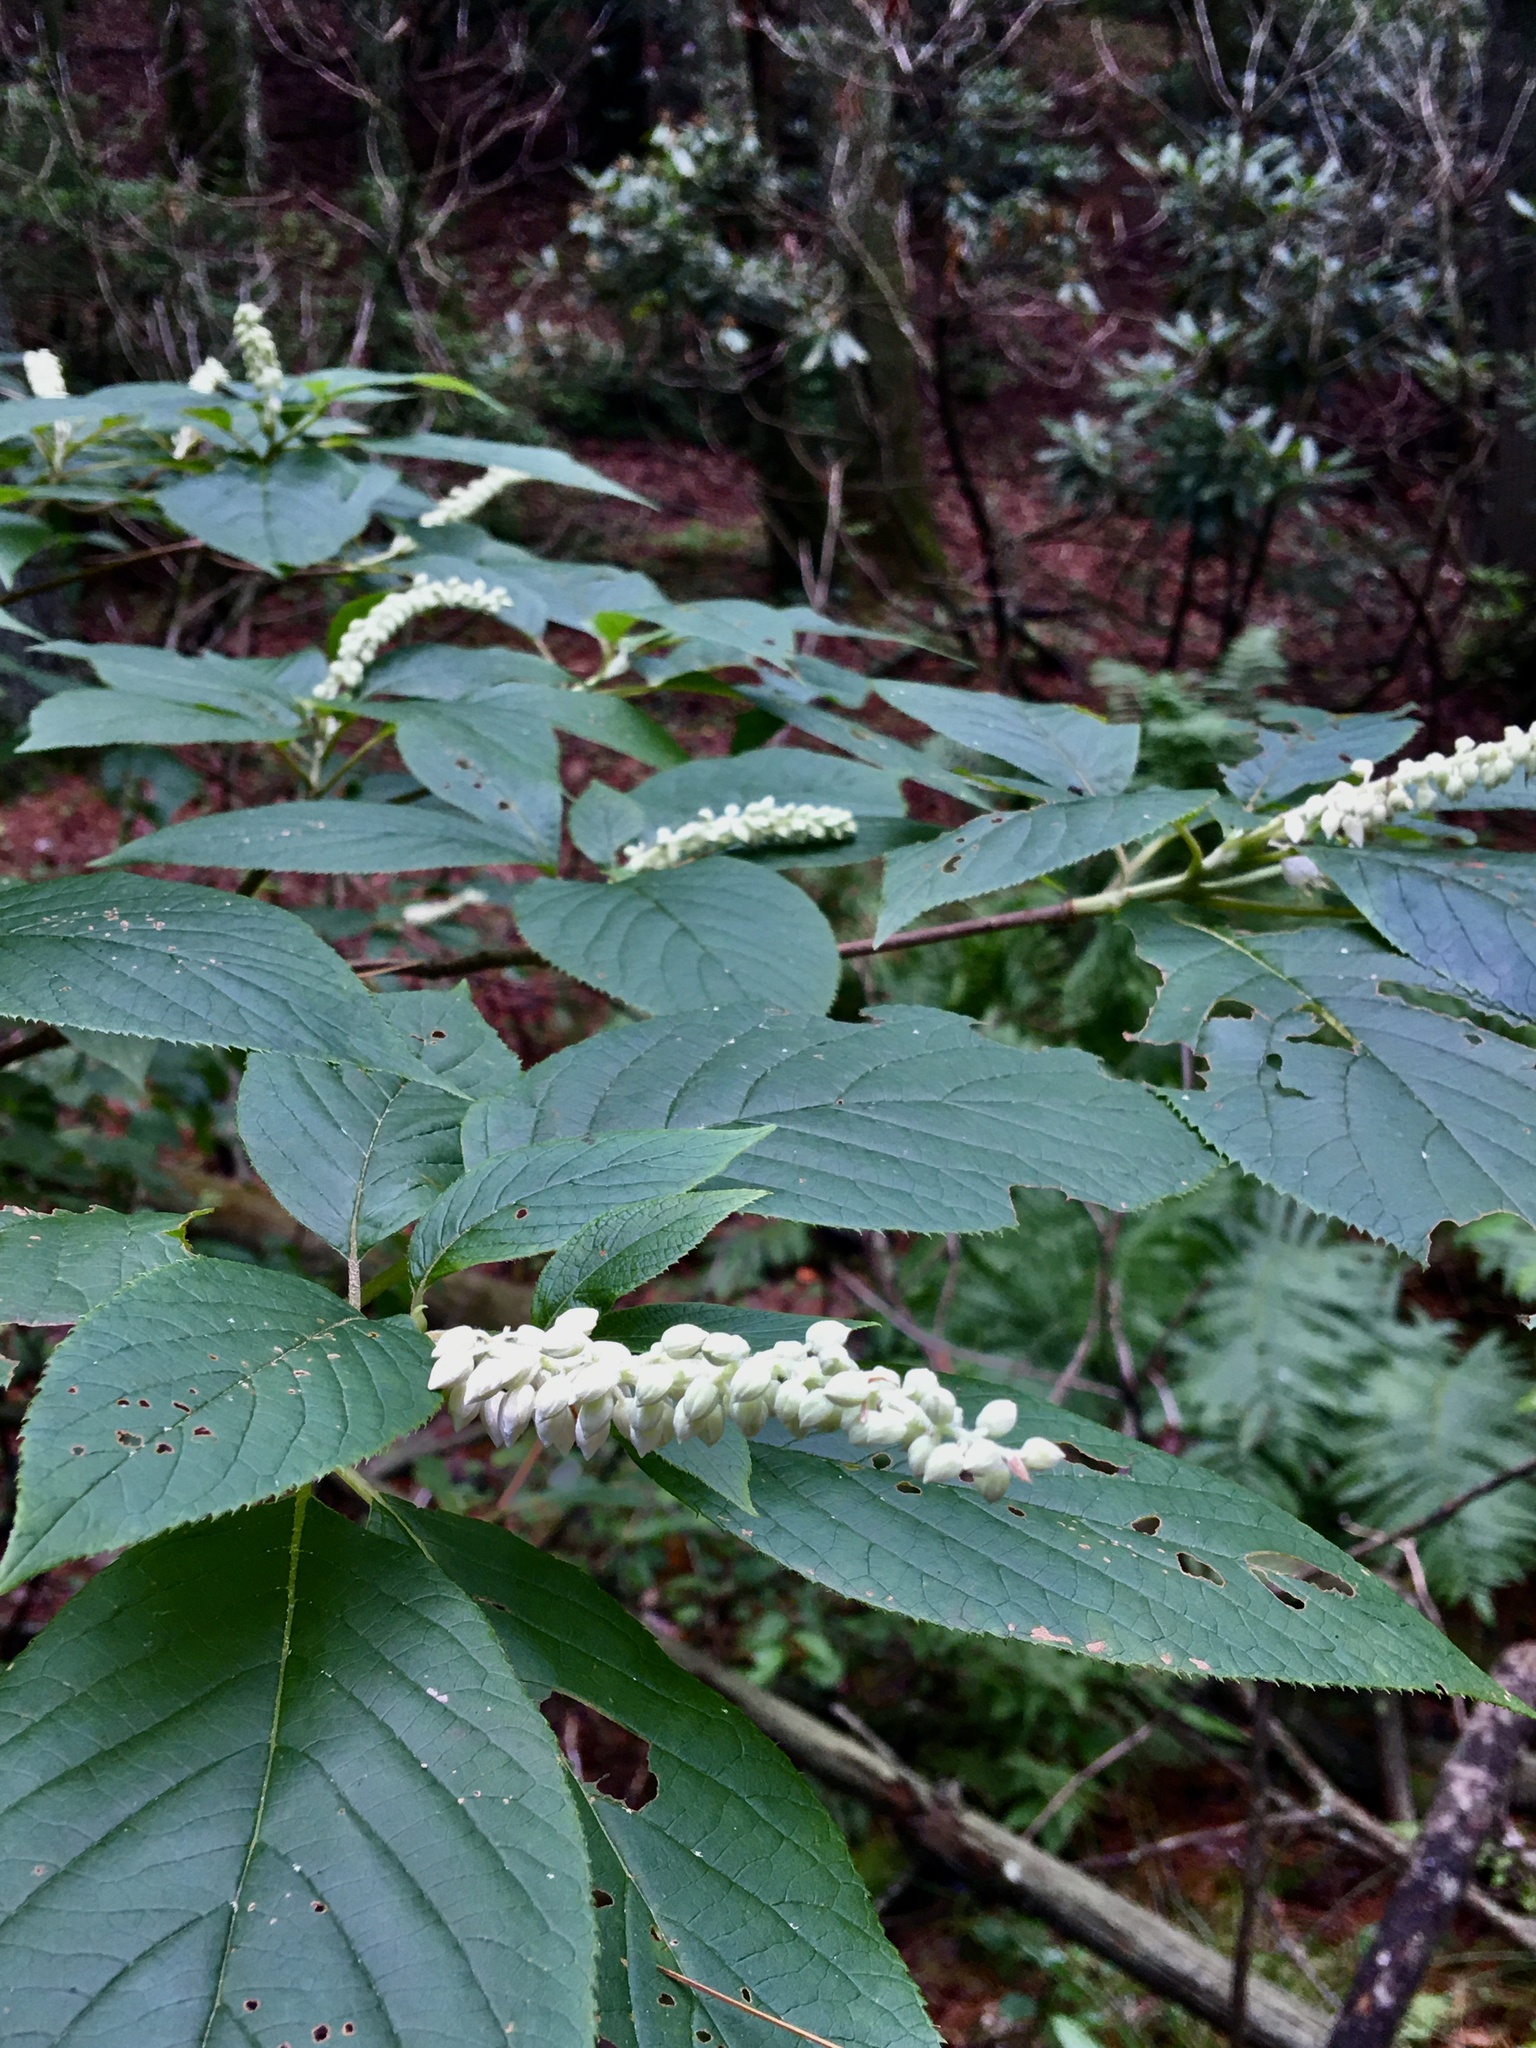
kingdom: Plantae
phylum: Tracheophyta
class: Magnoliopsida
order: Ericales
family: Clethraceae
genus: Clethra
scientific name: Clethra acuminata
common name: Mountain sweet pepperbush
